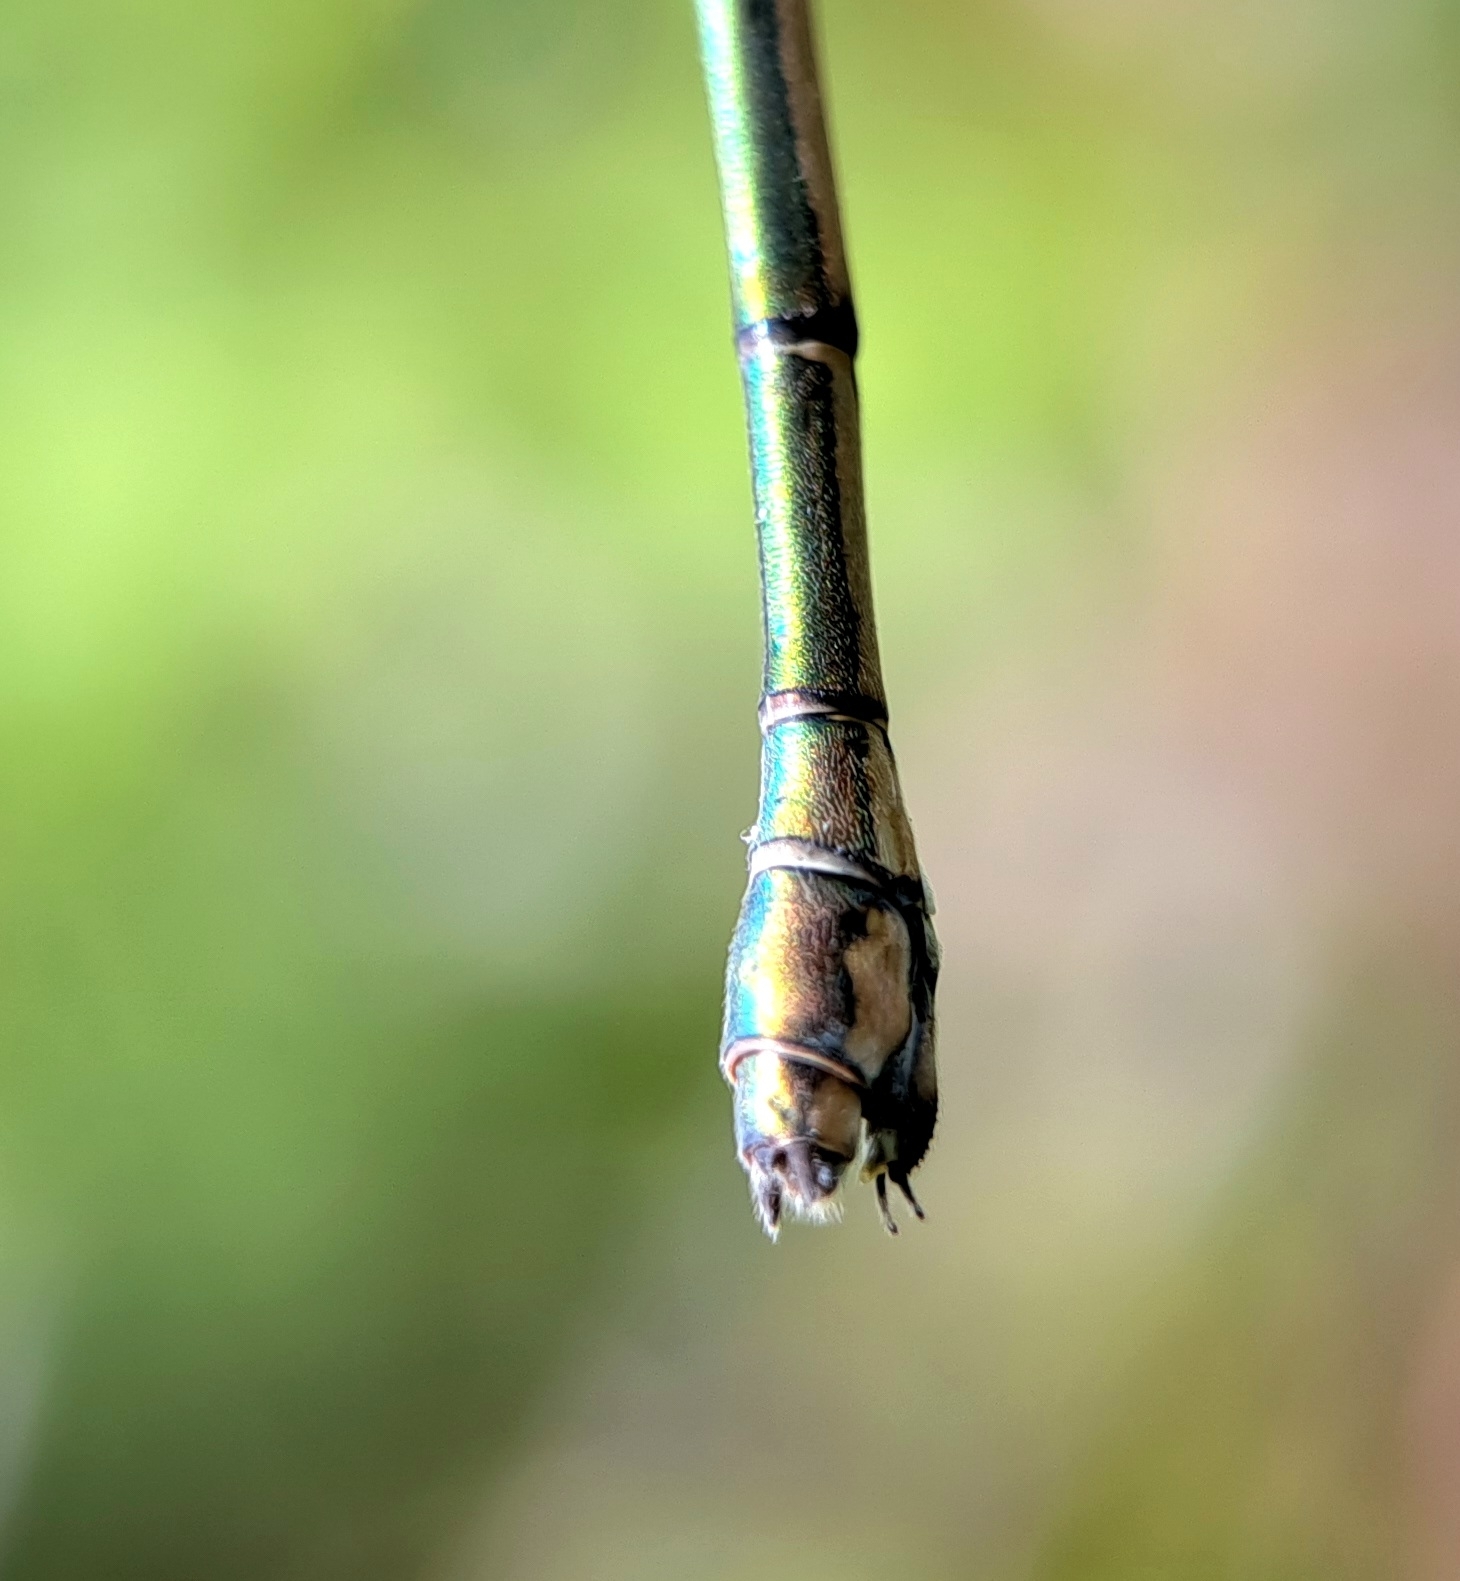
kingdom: Animalia
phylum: Arthropoda
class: Insecta
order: Odonata
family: Lestidae
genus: Chalcolestes
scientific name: Chalcolestes viridis
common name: Green emerald damselfly
